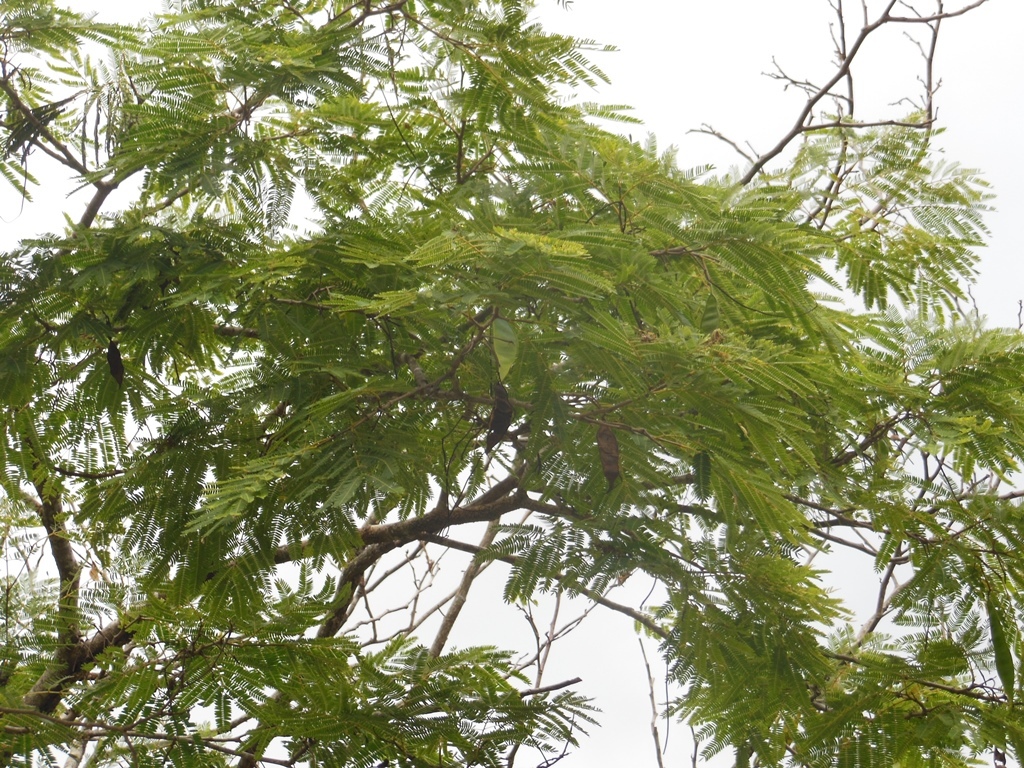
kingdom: Plantae
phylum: Tracheophyta
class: Magnoliopsida
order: Fabales
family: Fabaceae
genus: Lysiloma
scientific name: Lysiloma divaricatum
